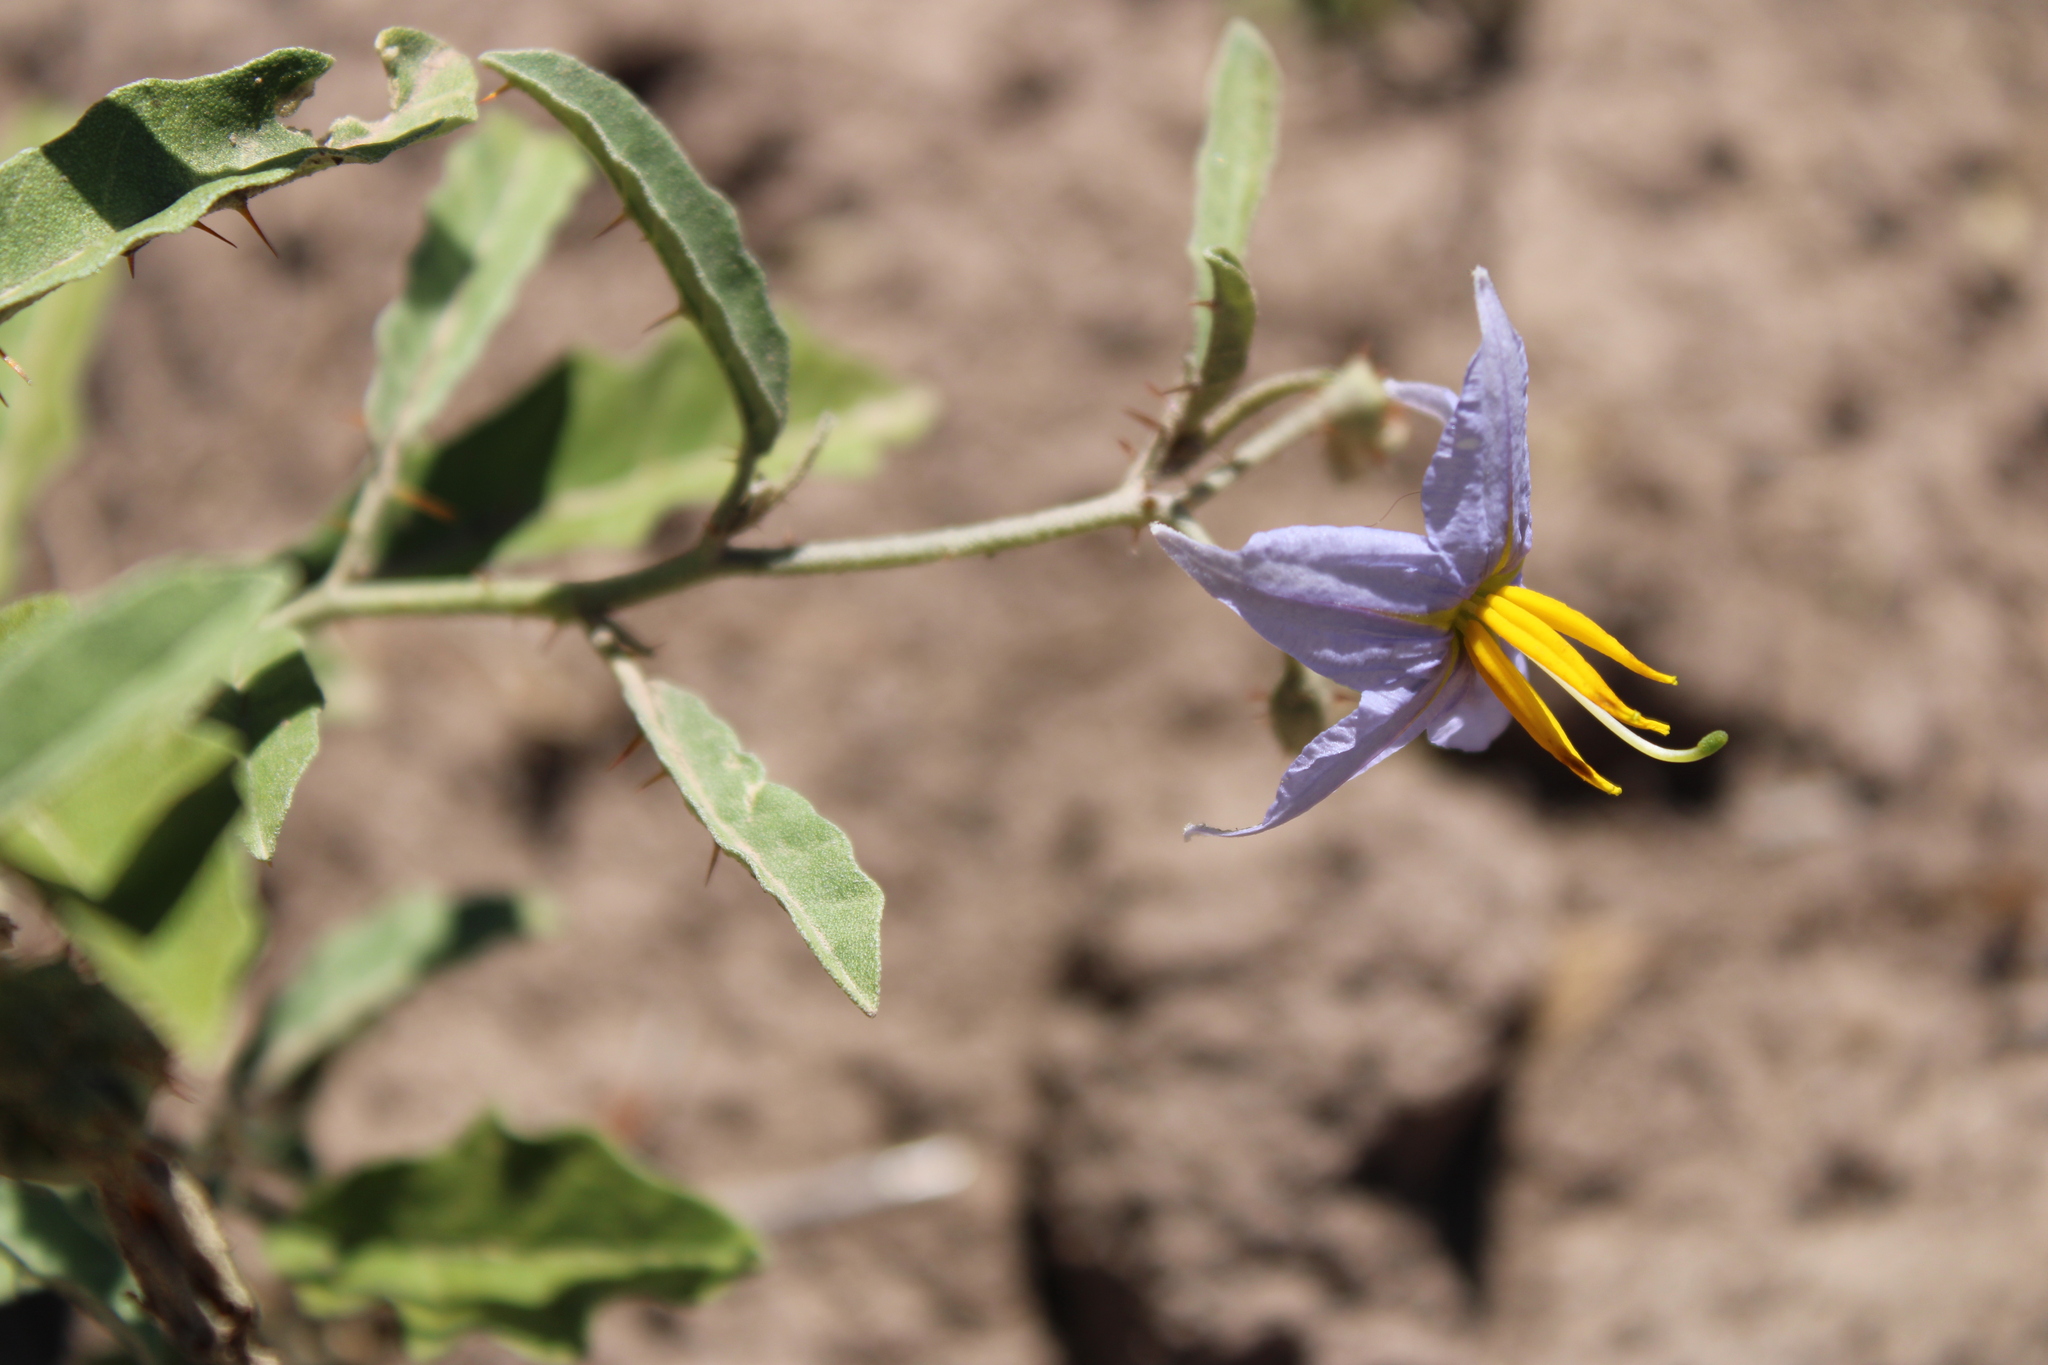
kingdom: Plantae
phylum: Tracheophyta
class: Magnoliopsida
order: Solanales
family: Solanaceae
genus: Solanum
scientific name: Solanum elaeagnifolium
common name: Silverleaf nightshade
